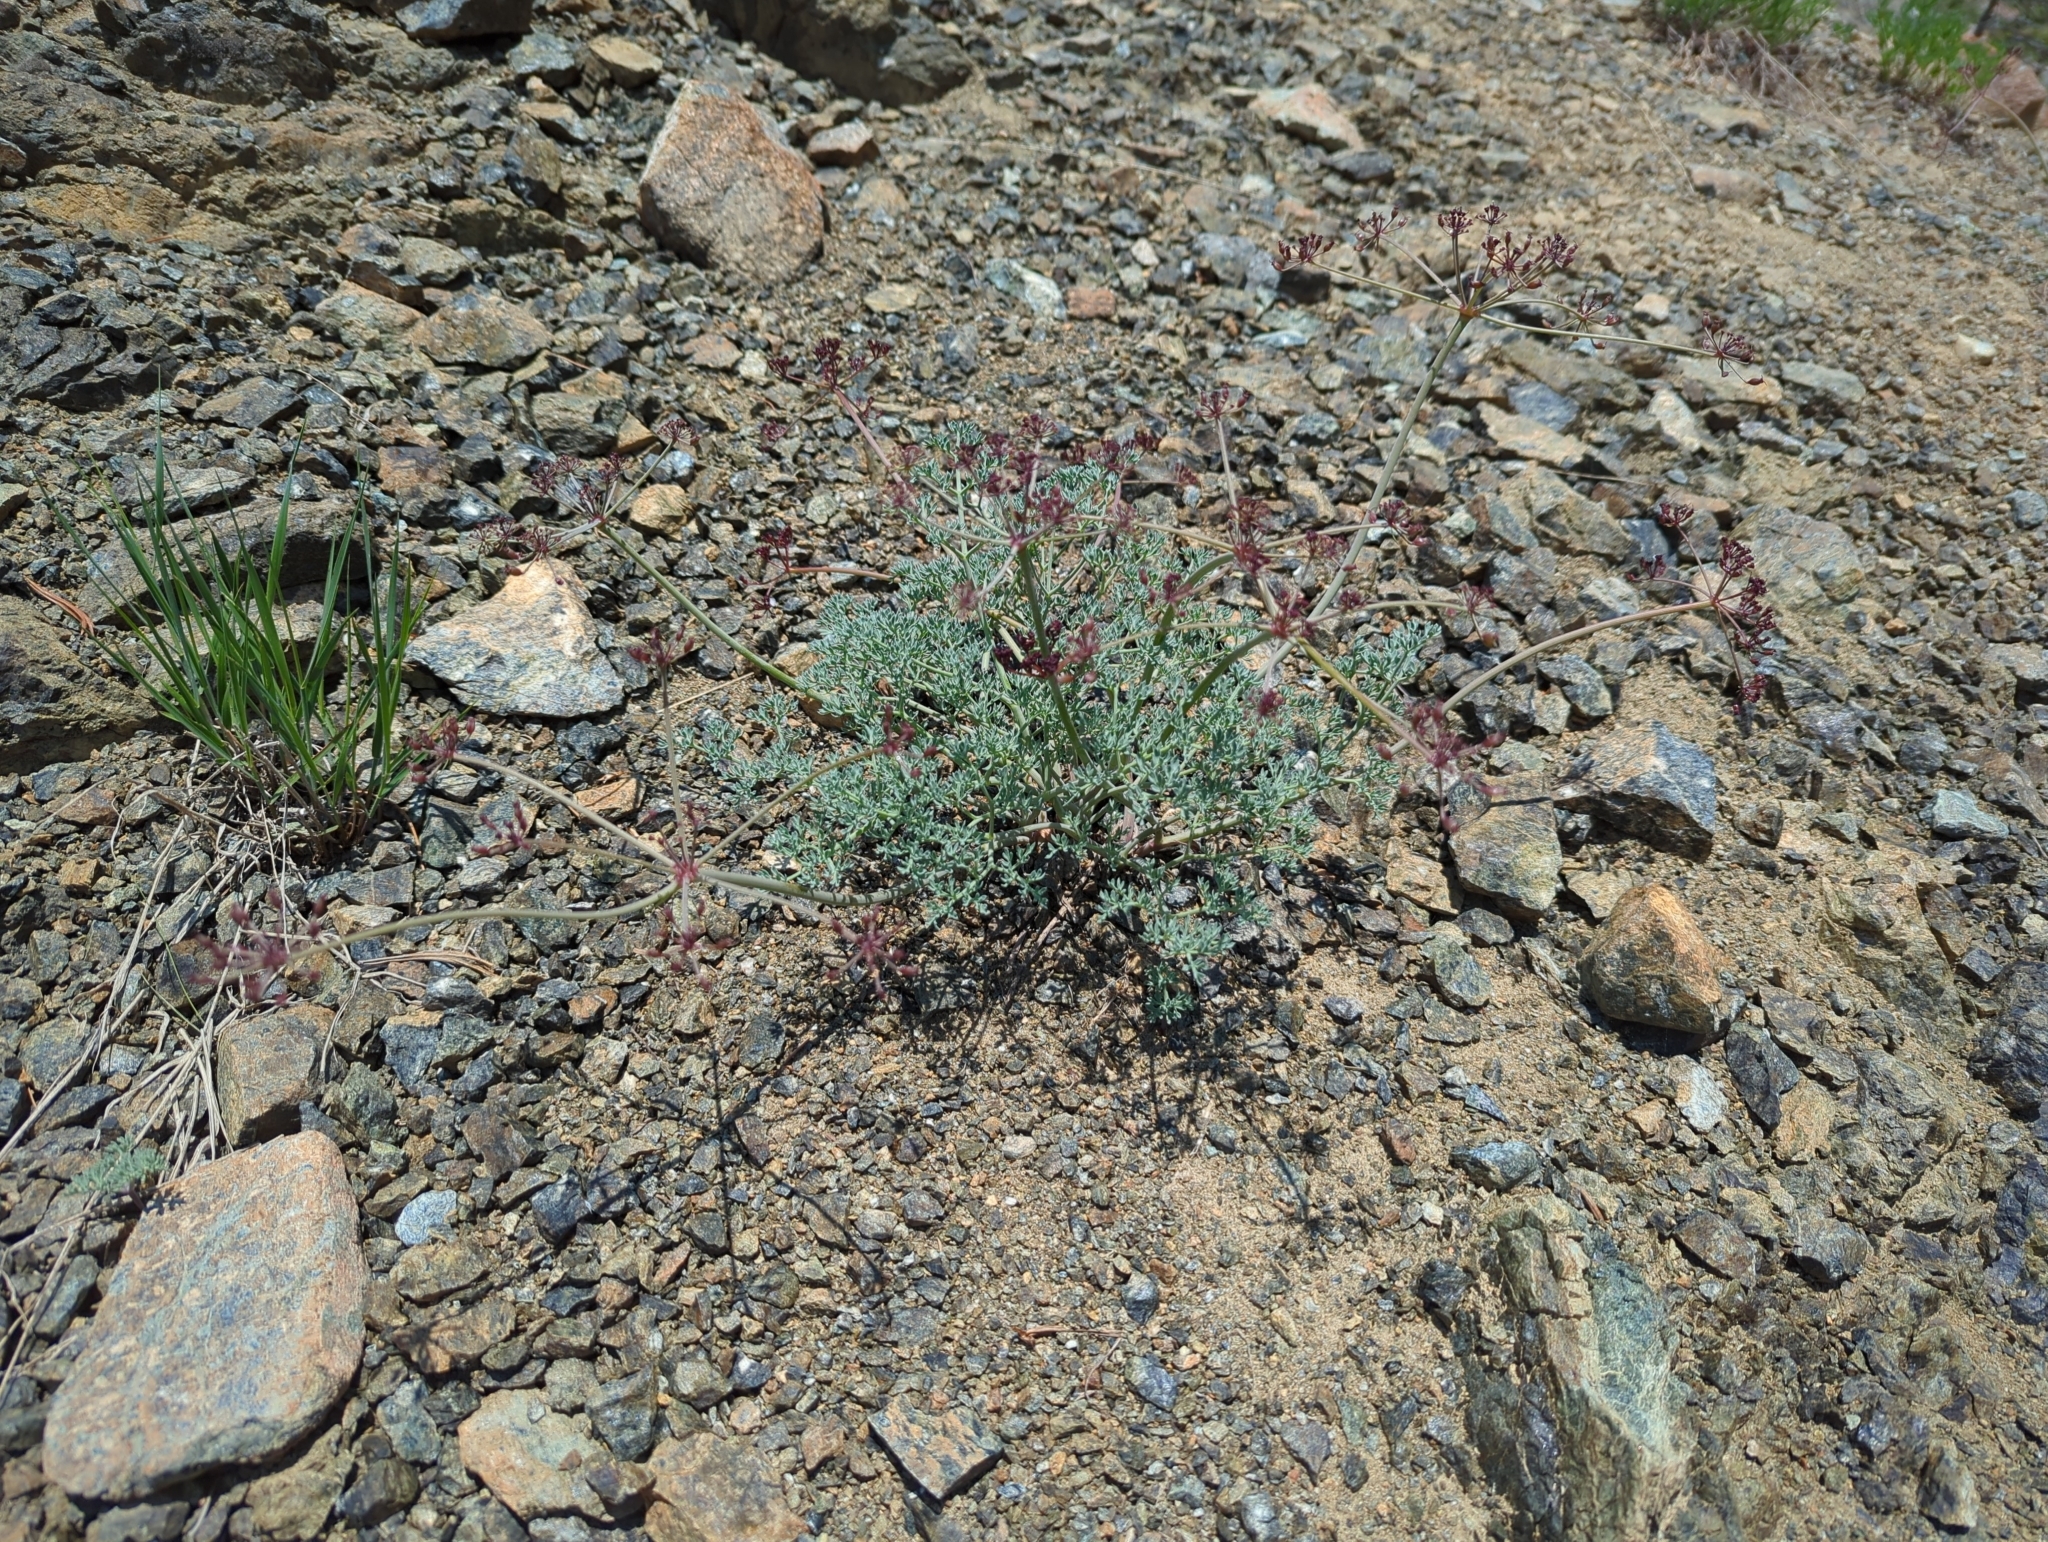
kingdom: Plantae
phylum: Tracheophyta
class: Magnoliopsida
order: Apiales
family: Apiaceae
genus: Lomatium
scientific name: Lomatium cuspidatum
